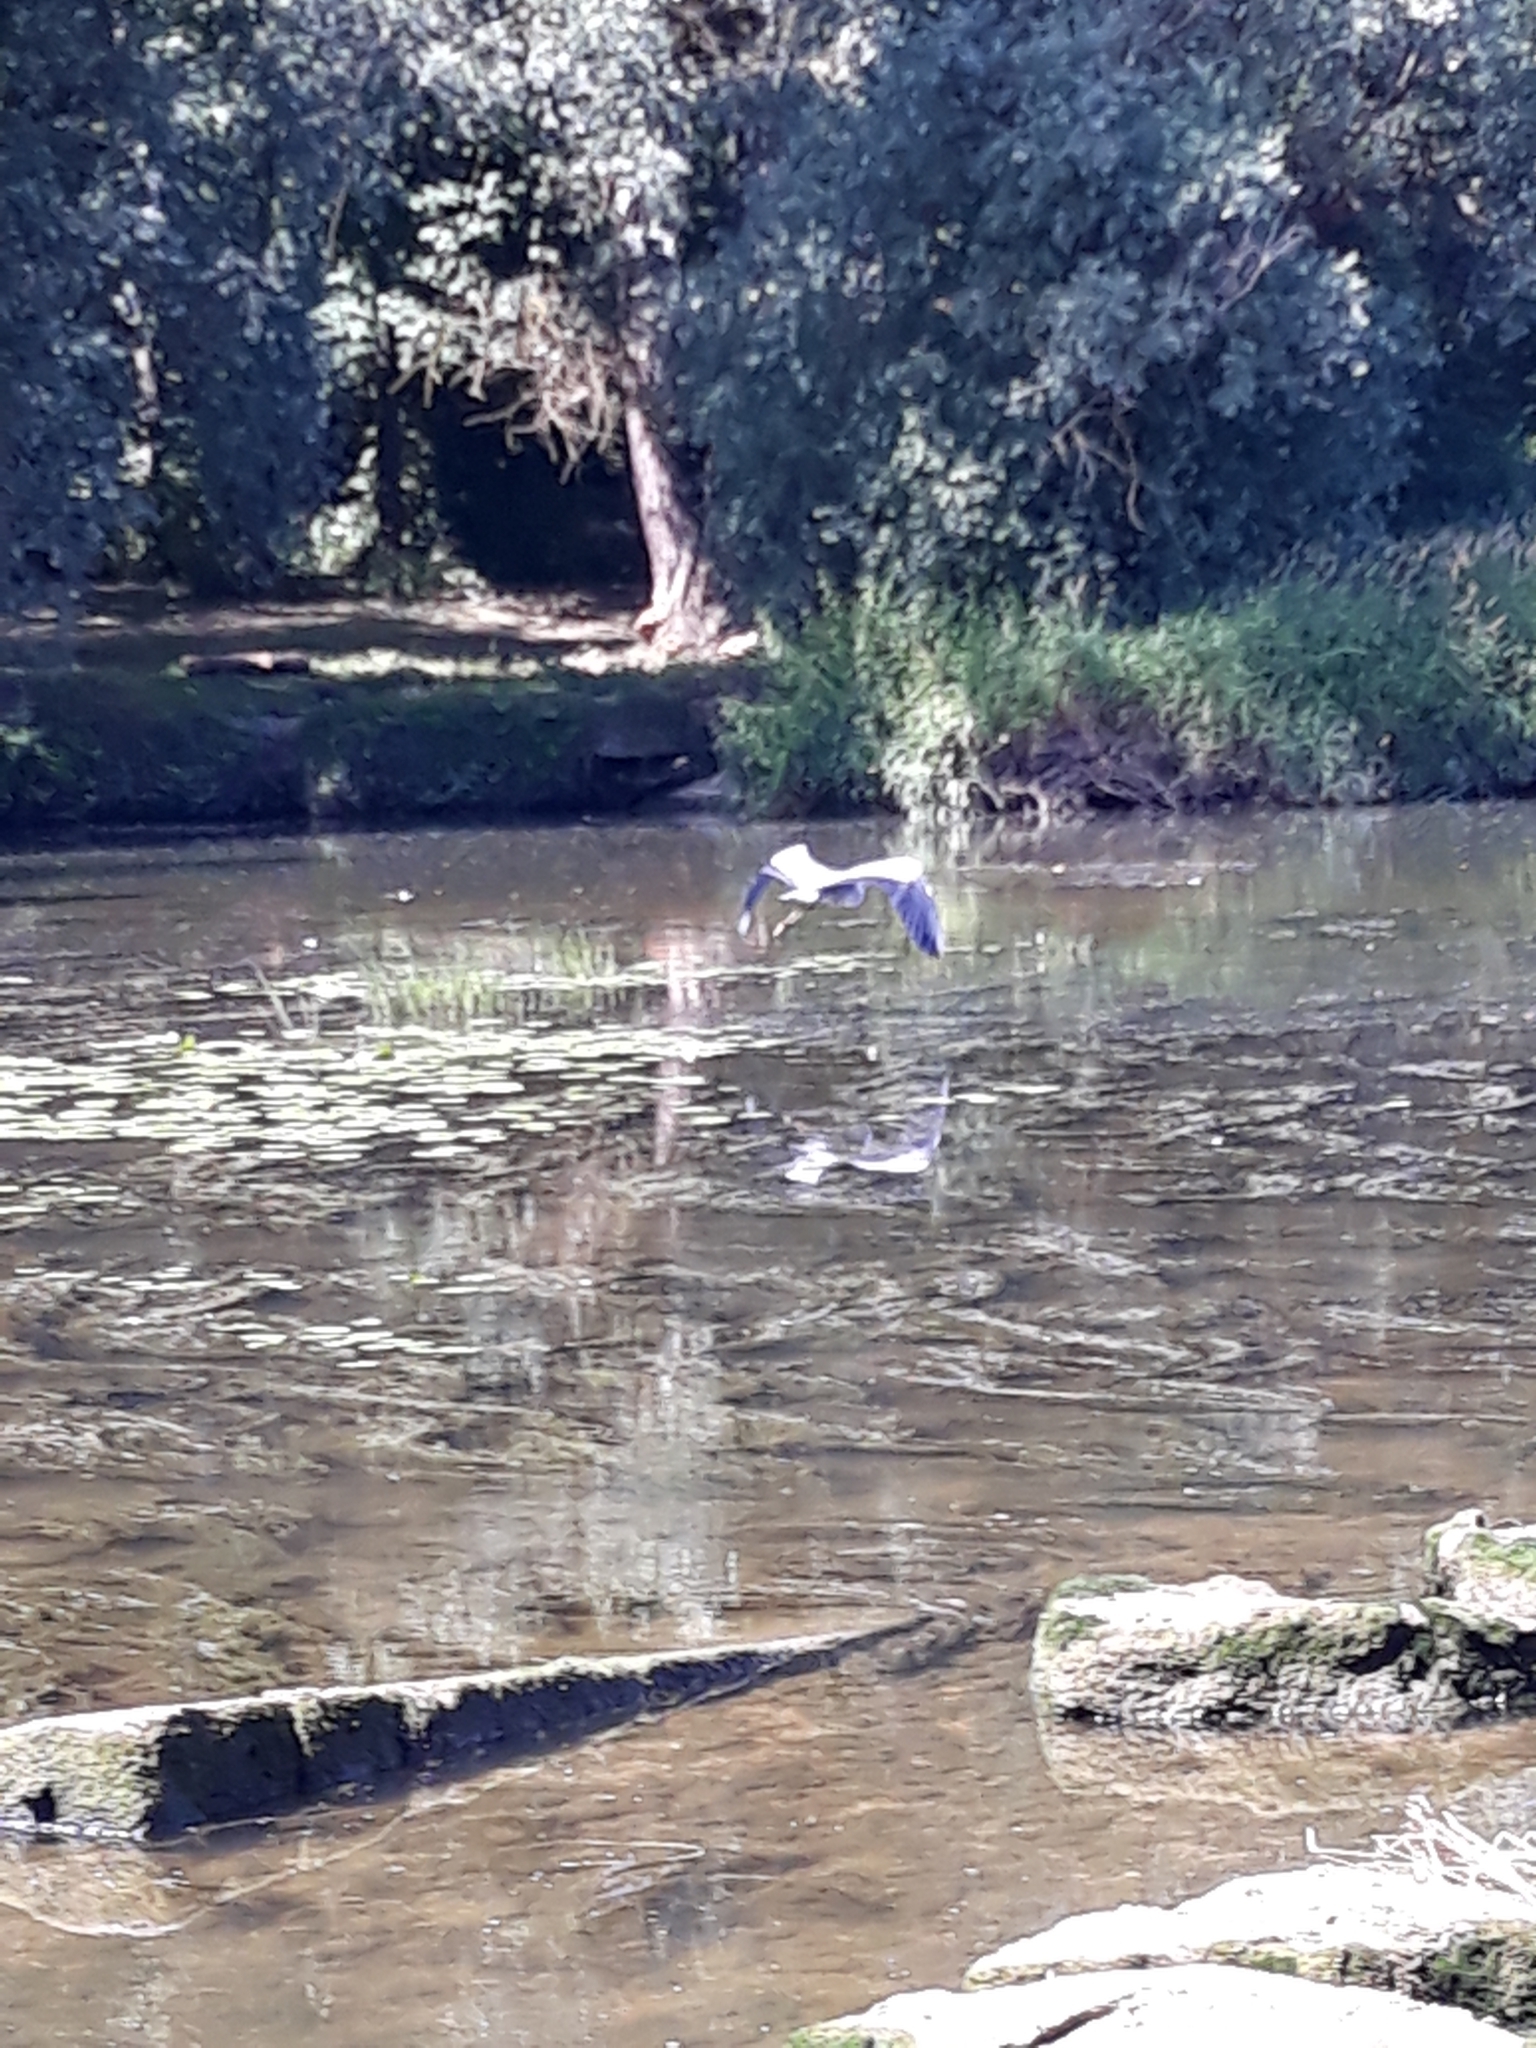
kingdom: Animalia
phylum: Chordata
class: Aves
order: Pelecaniformes
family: Ardeidae
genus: Ardea
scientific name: Ardea cinerea
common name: Grey heron
